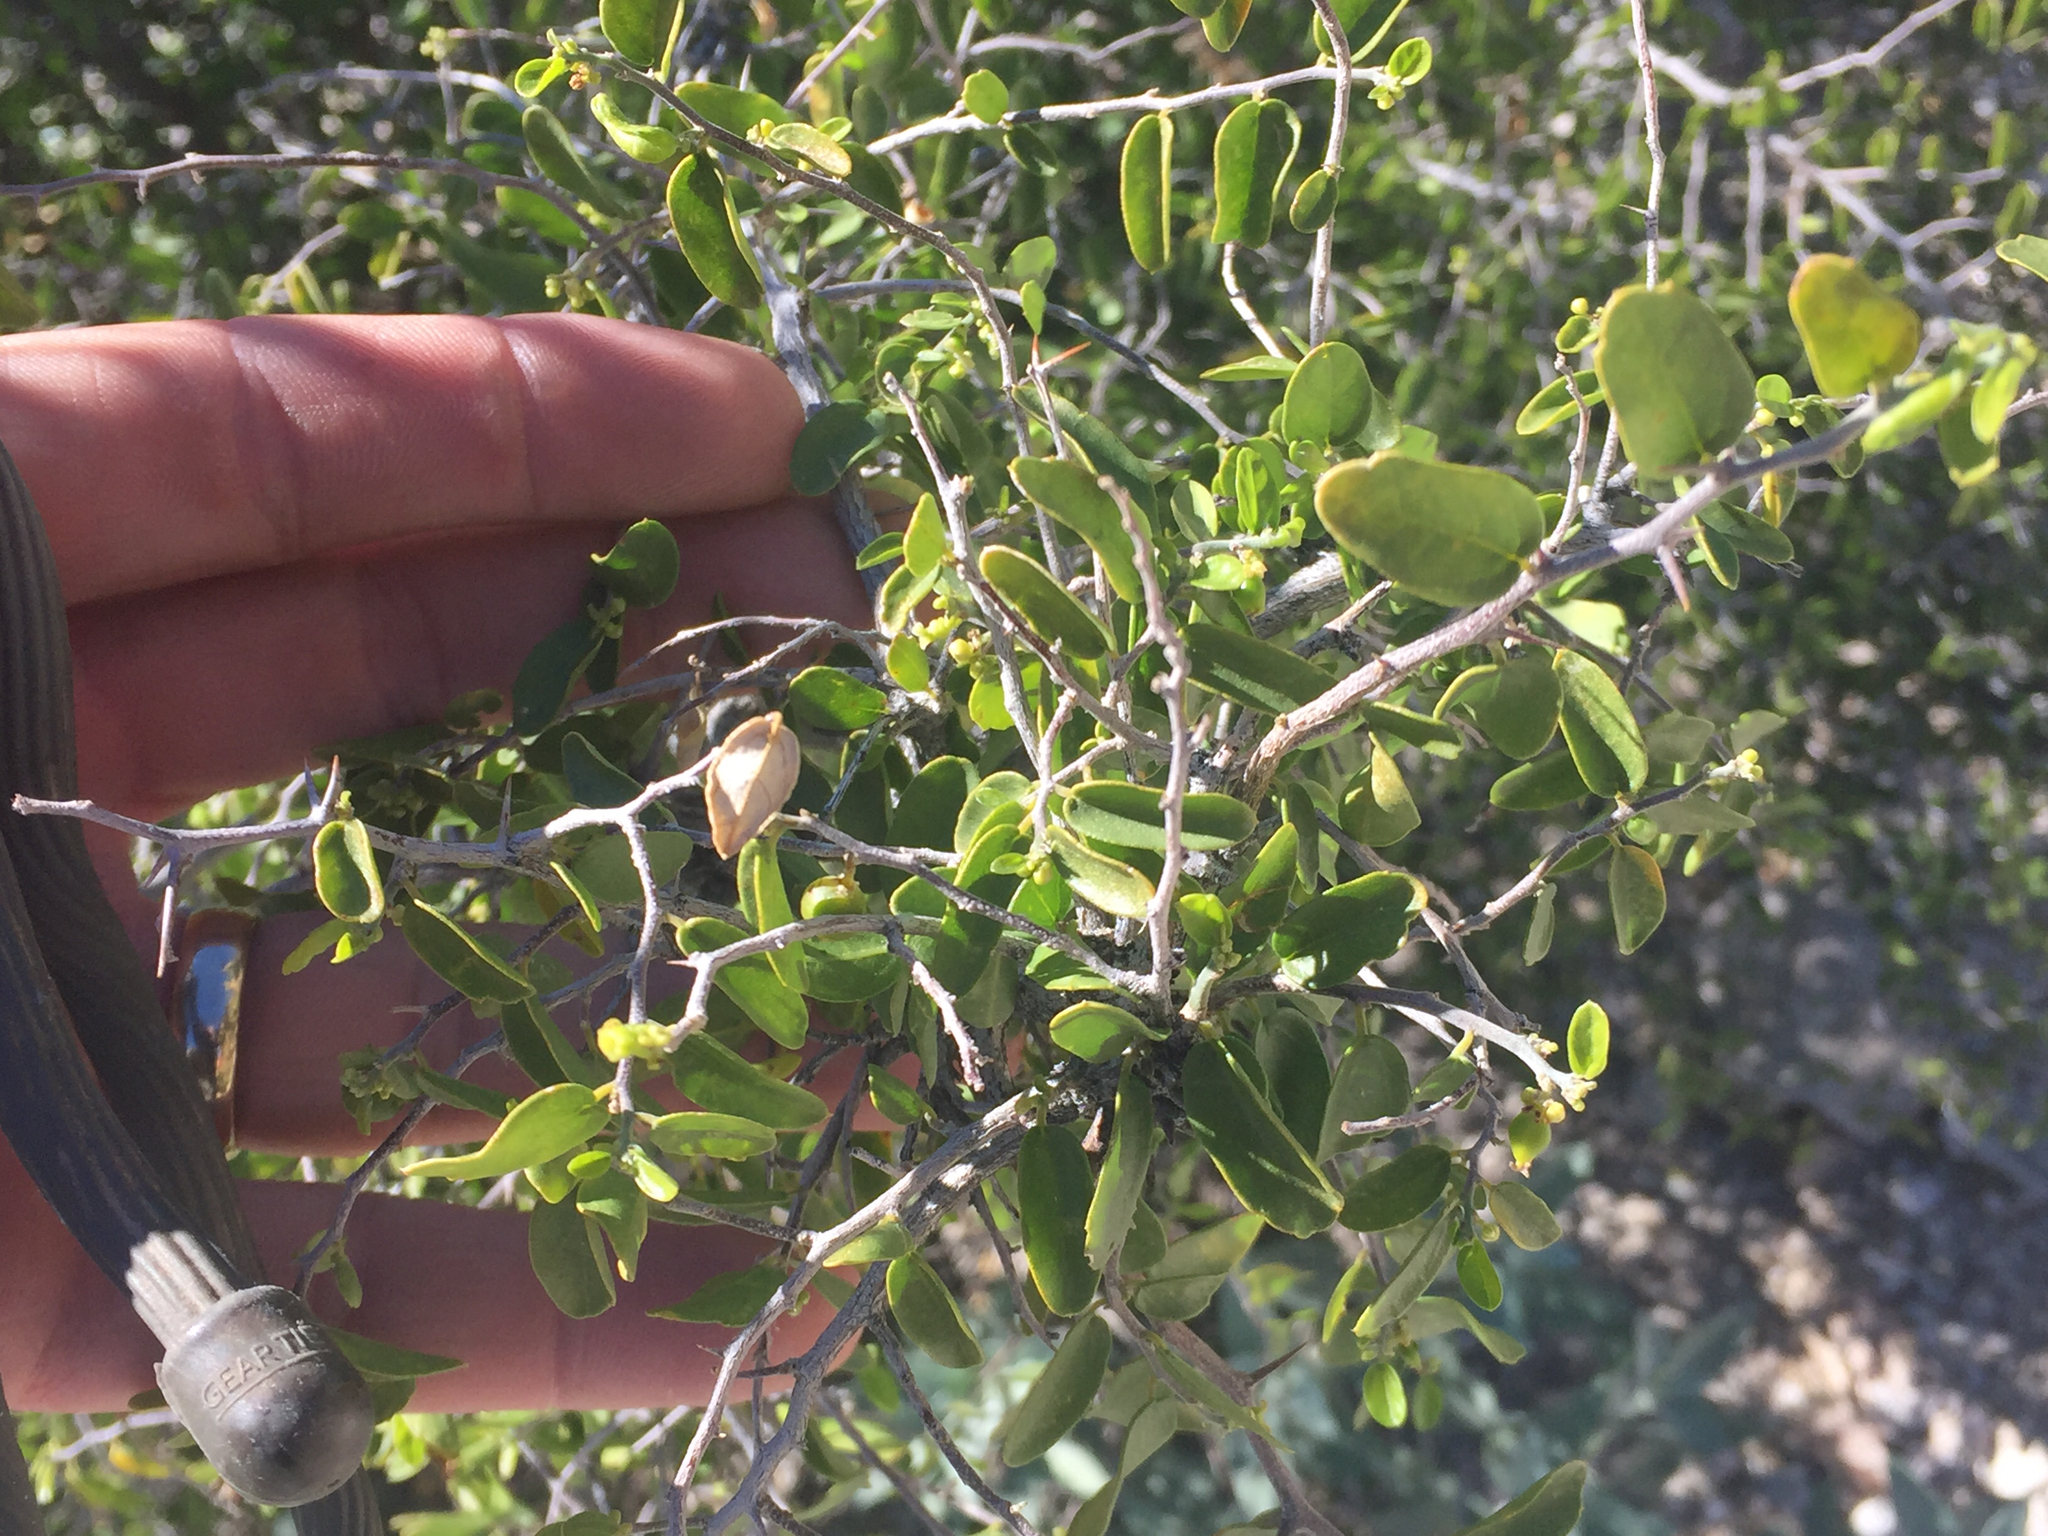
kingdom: Plantae
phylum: Tracheophyta
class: Magnoliopsida
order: Rosales
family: Cannabaceae
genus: Celtis
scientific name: Celtis pallida
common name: Desert hackberry
